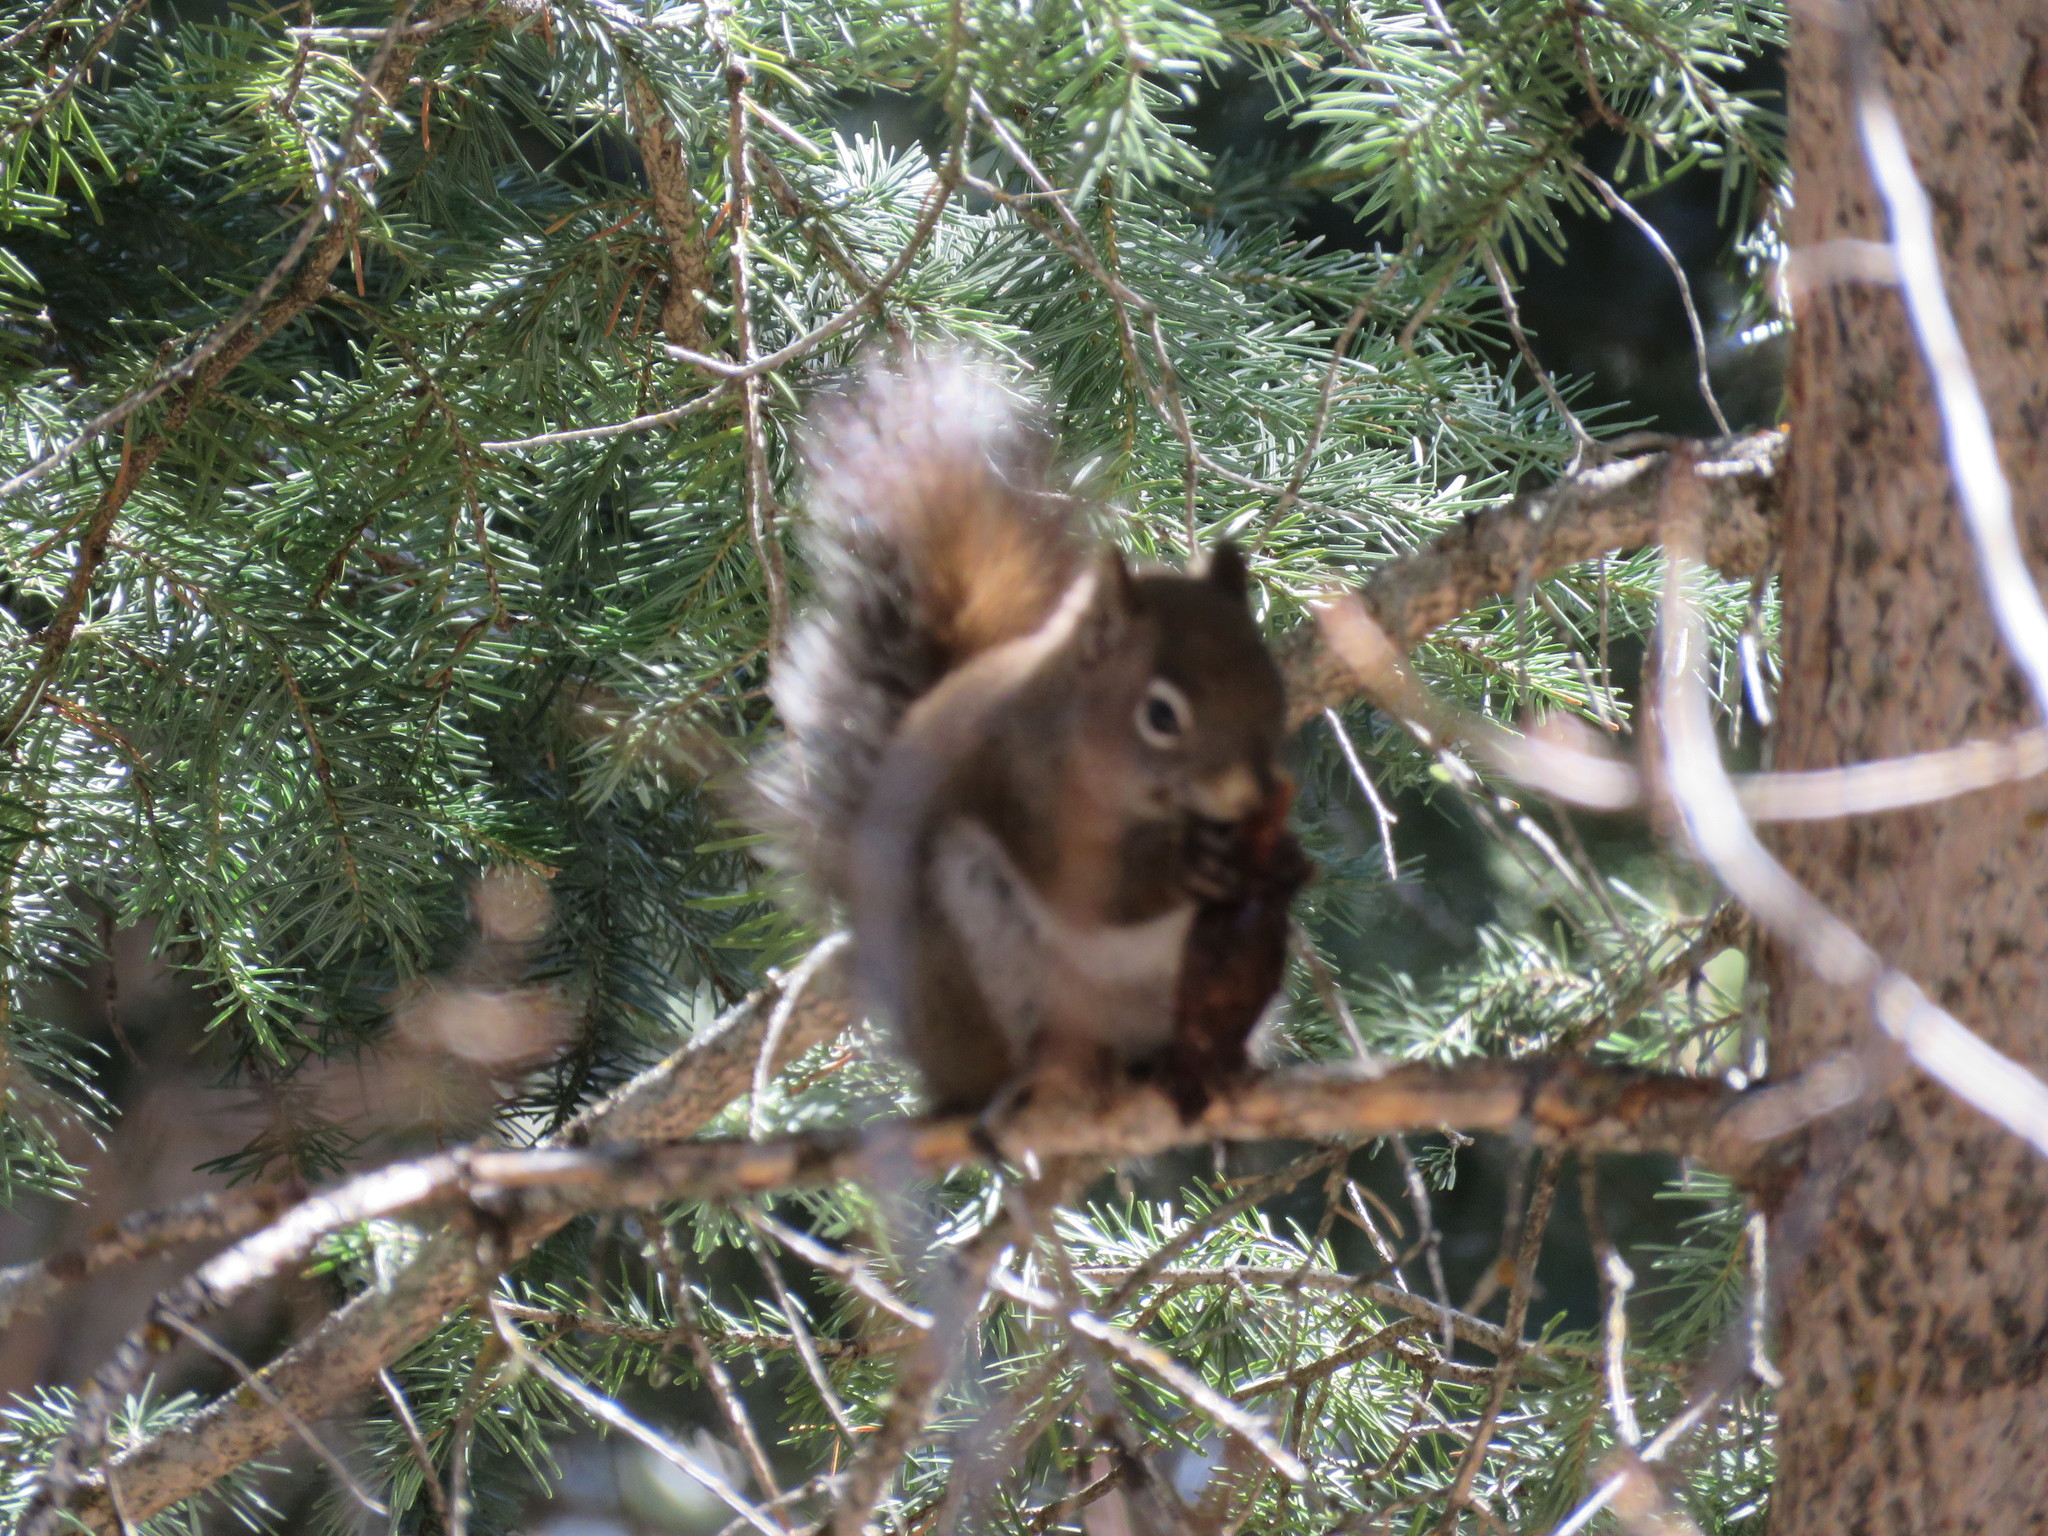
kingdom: Animalia
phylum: Chordata
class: Mammalia
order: Rodentia
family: Sciuridae
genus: Tamiasciurus
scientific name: Tamiasciurus hudsonicus
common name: Red squirrel
